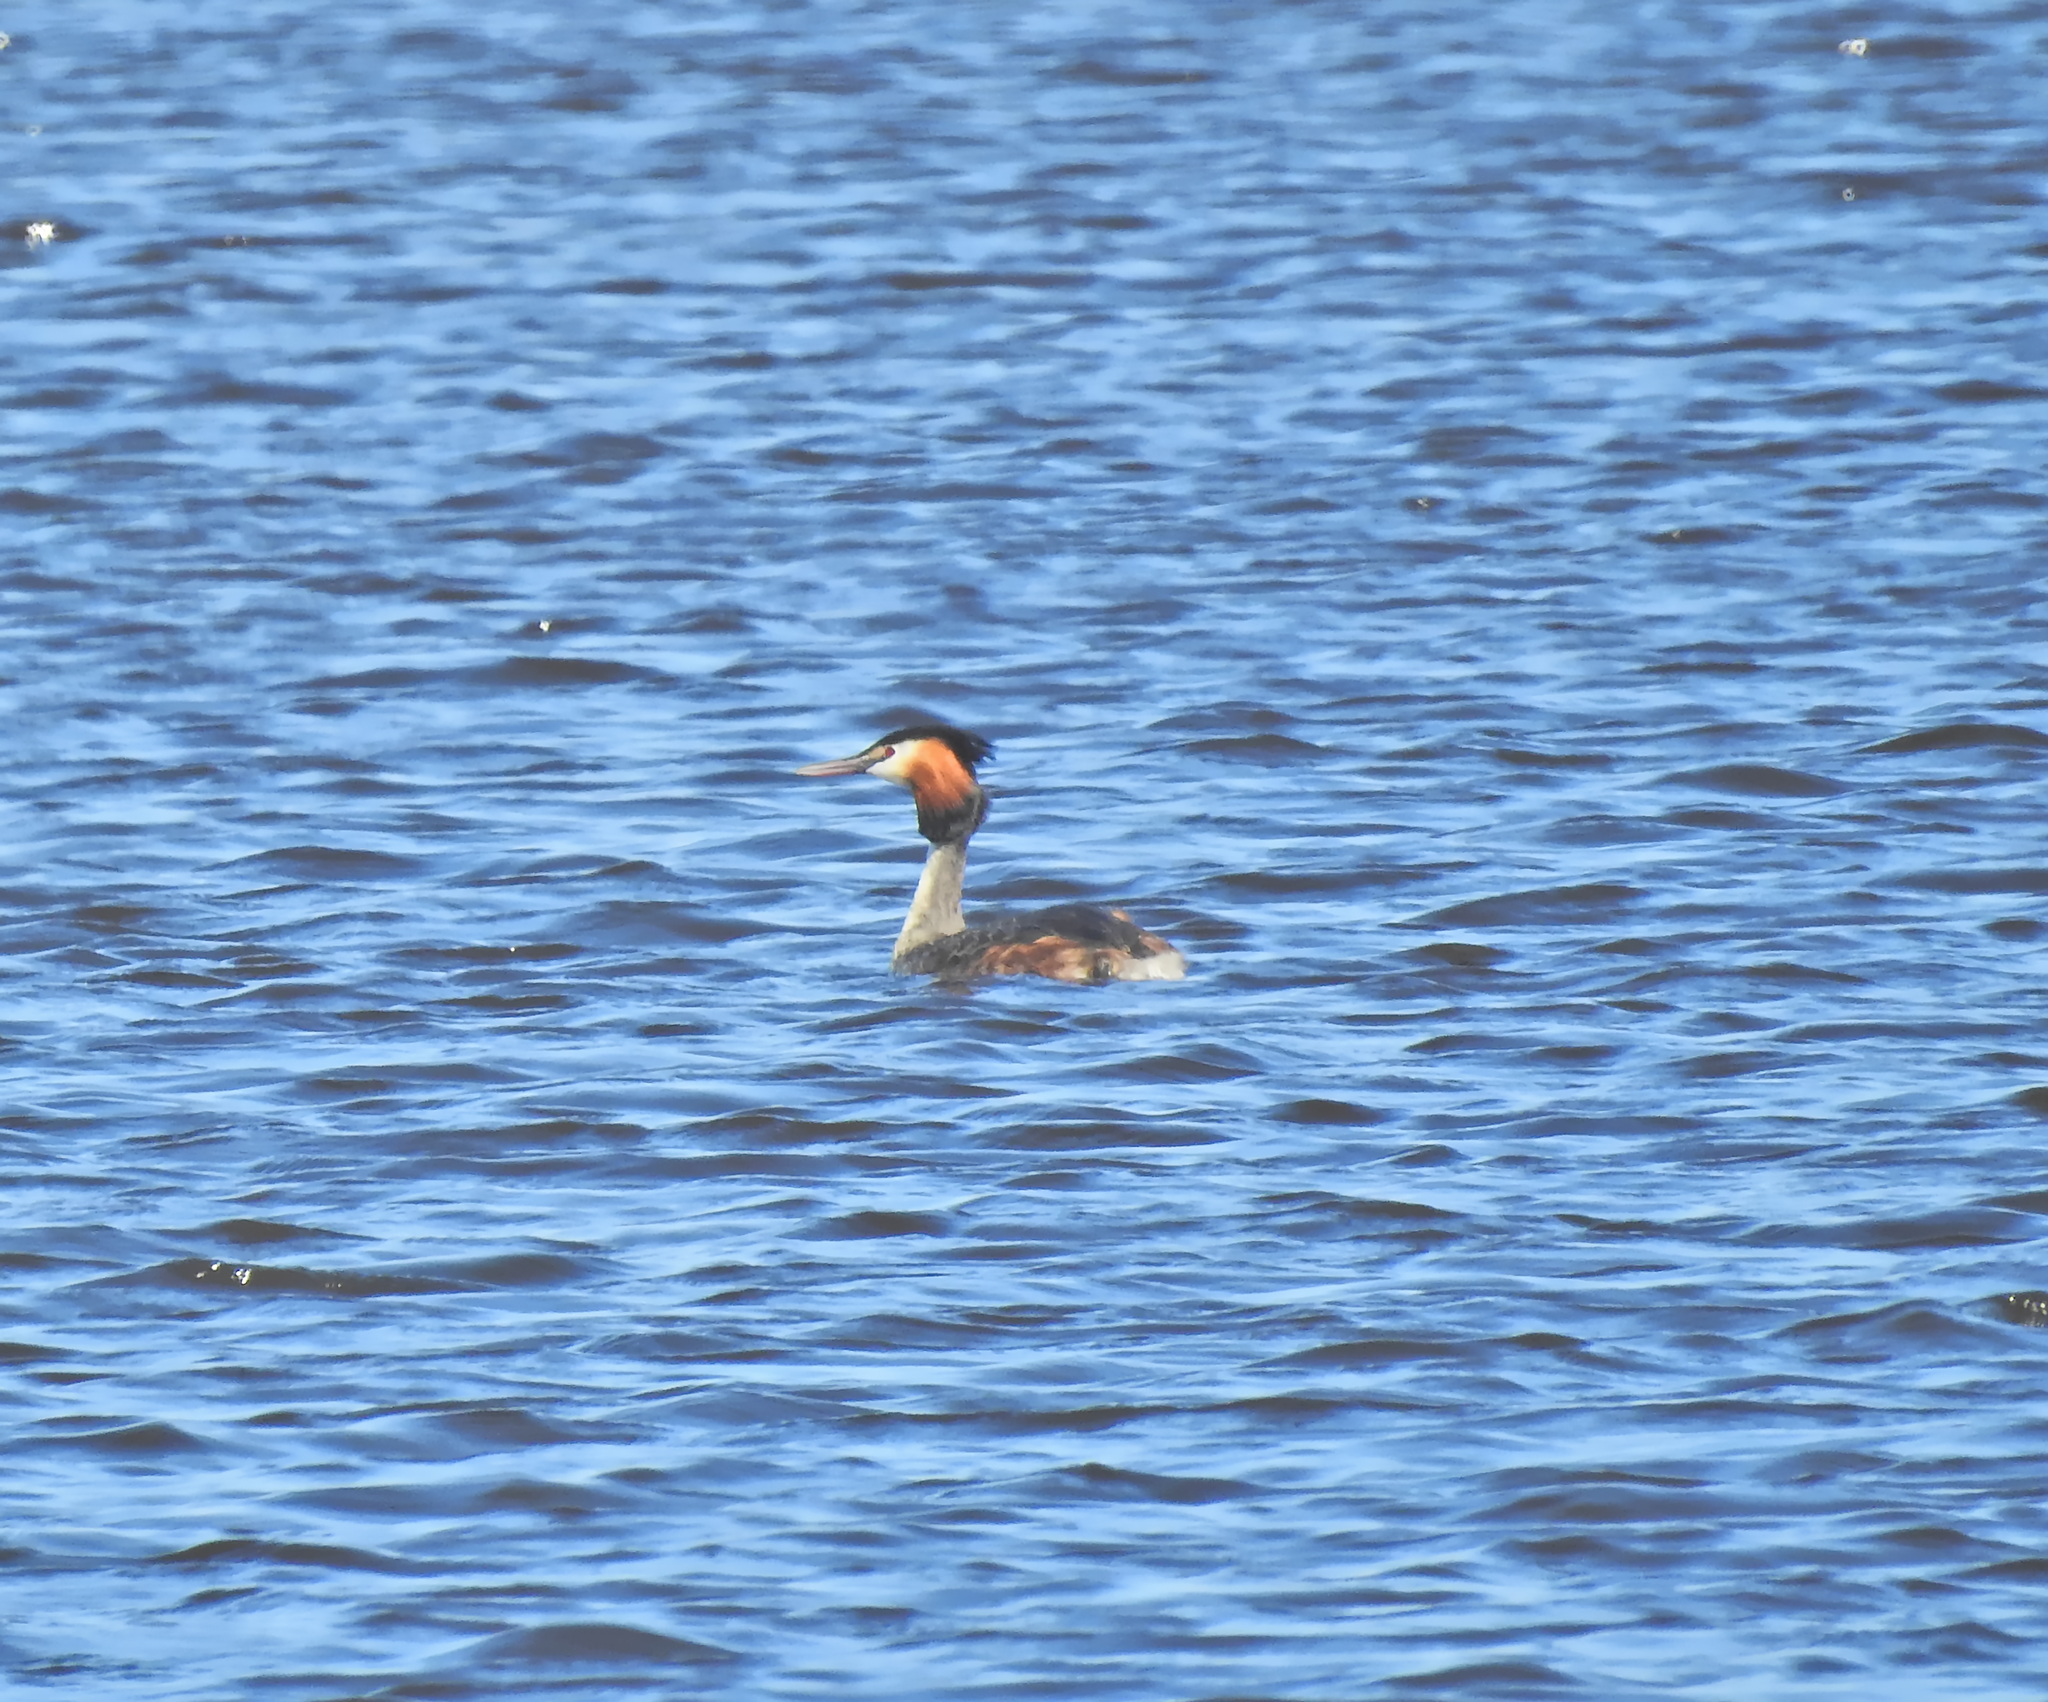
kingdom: Animalia
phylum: Chordata
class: Aves
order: Podicipediformes
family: Podicipedidae
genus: Podiceps
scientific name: Podiceps cristatus
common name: Great crested grebe
